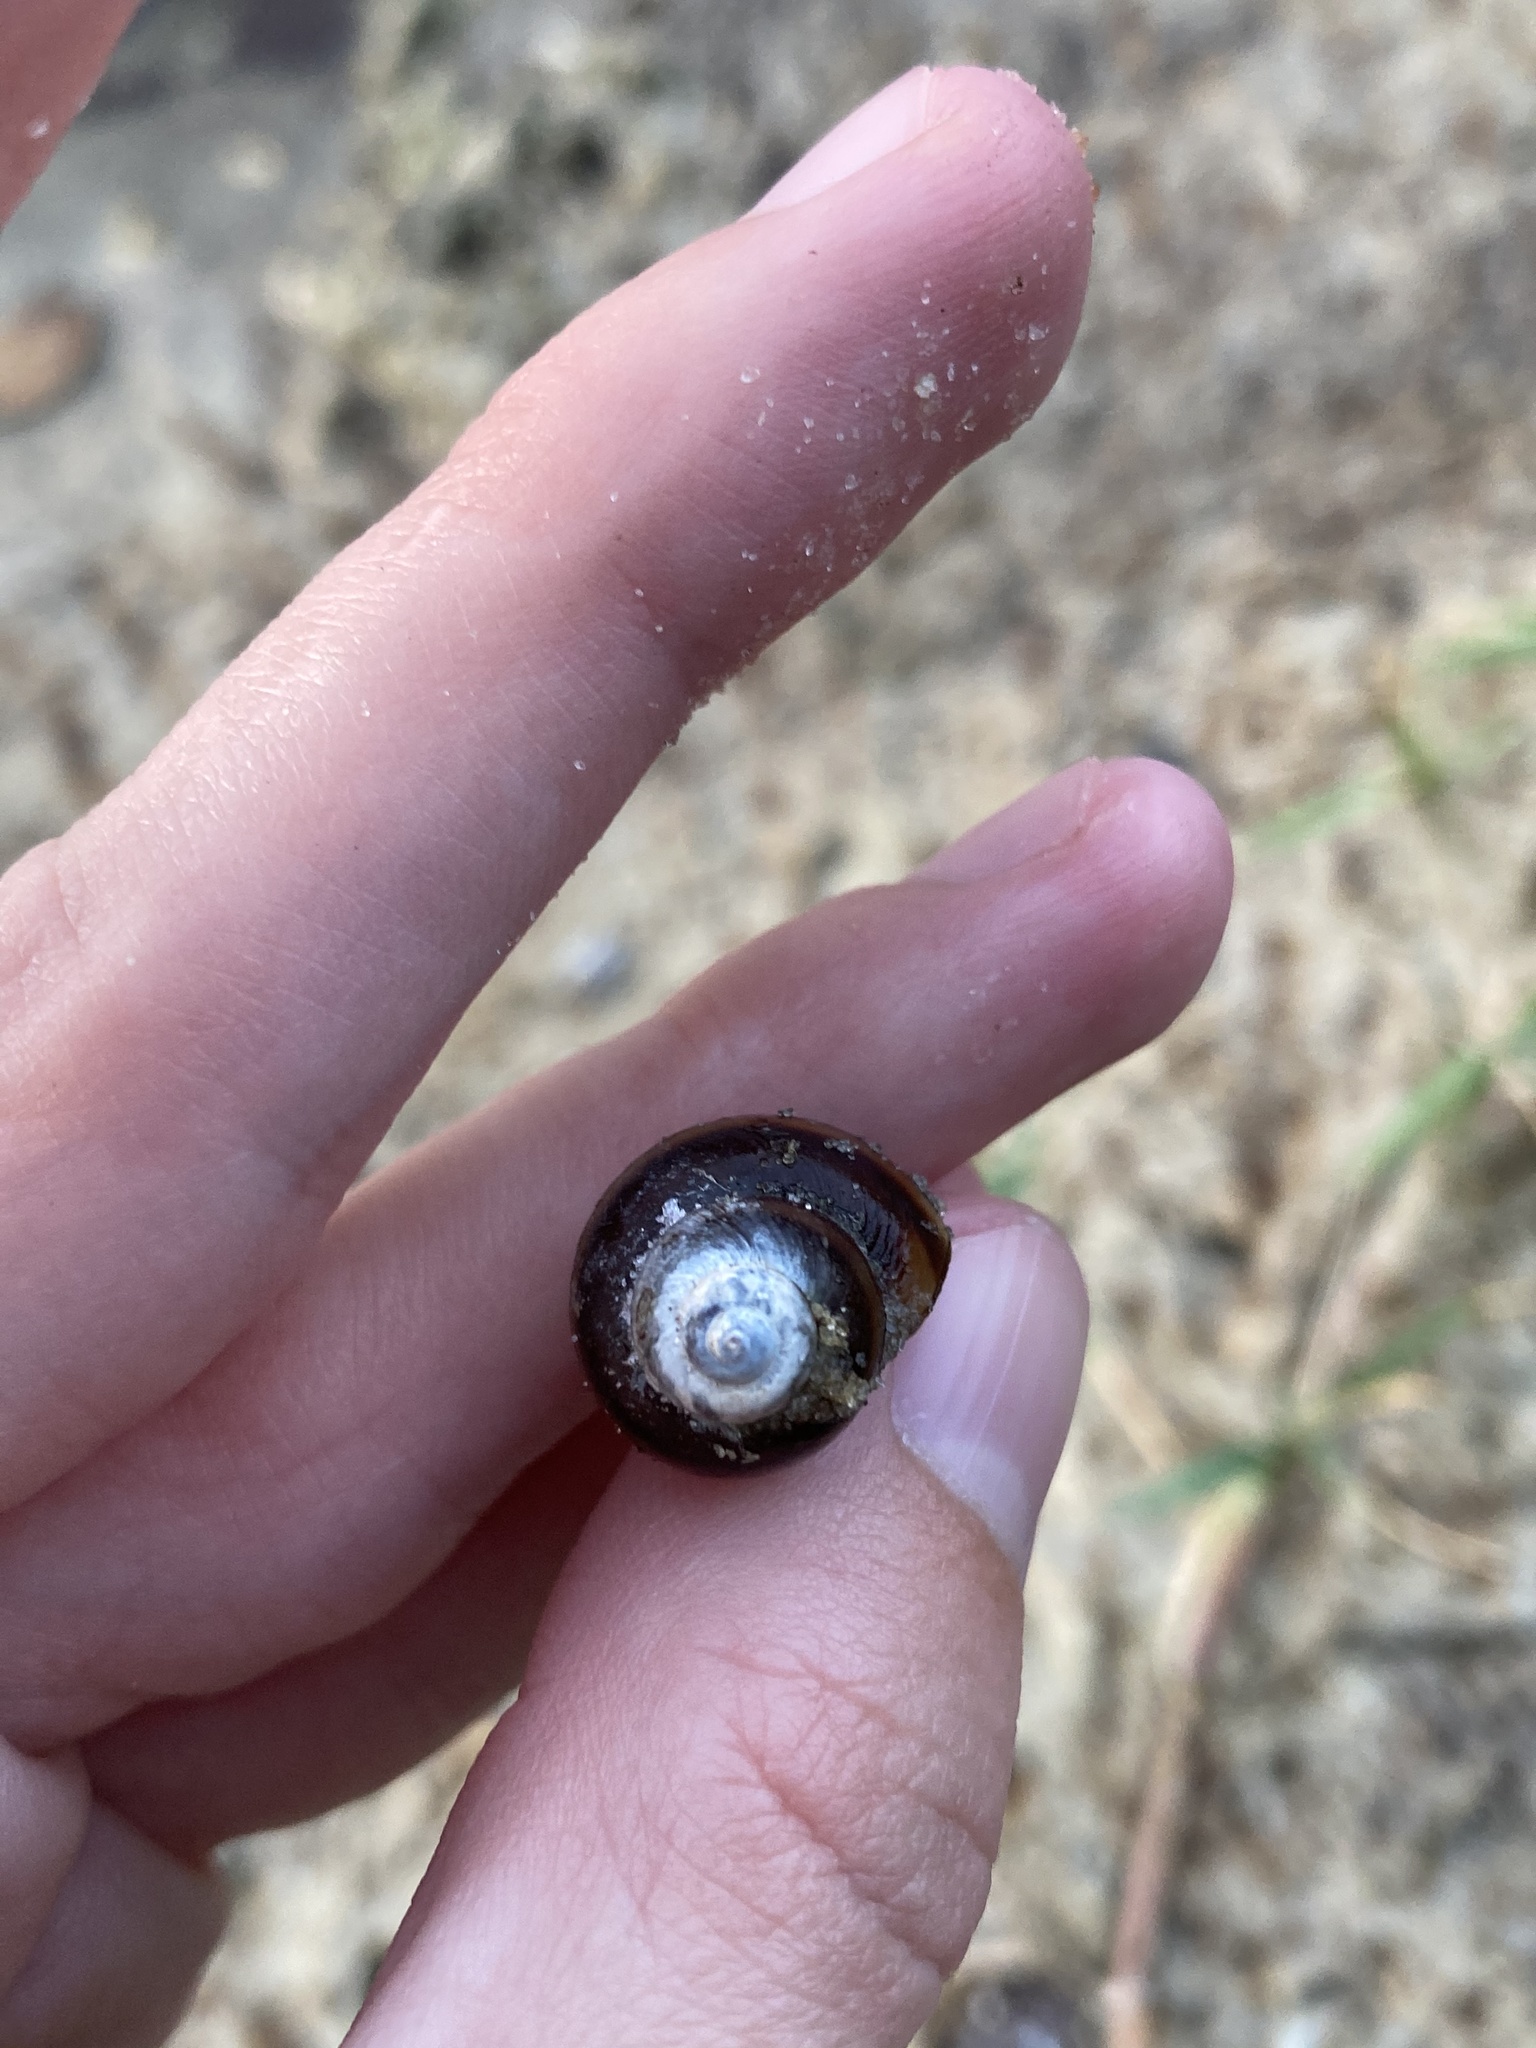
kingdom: Animalia
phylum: Mollusca
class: Gastropoda
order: Architaenioglossa
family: Viviparidae
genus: Callinina
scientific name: Callinina georgiana
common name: Banded mystery snail
